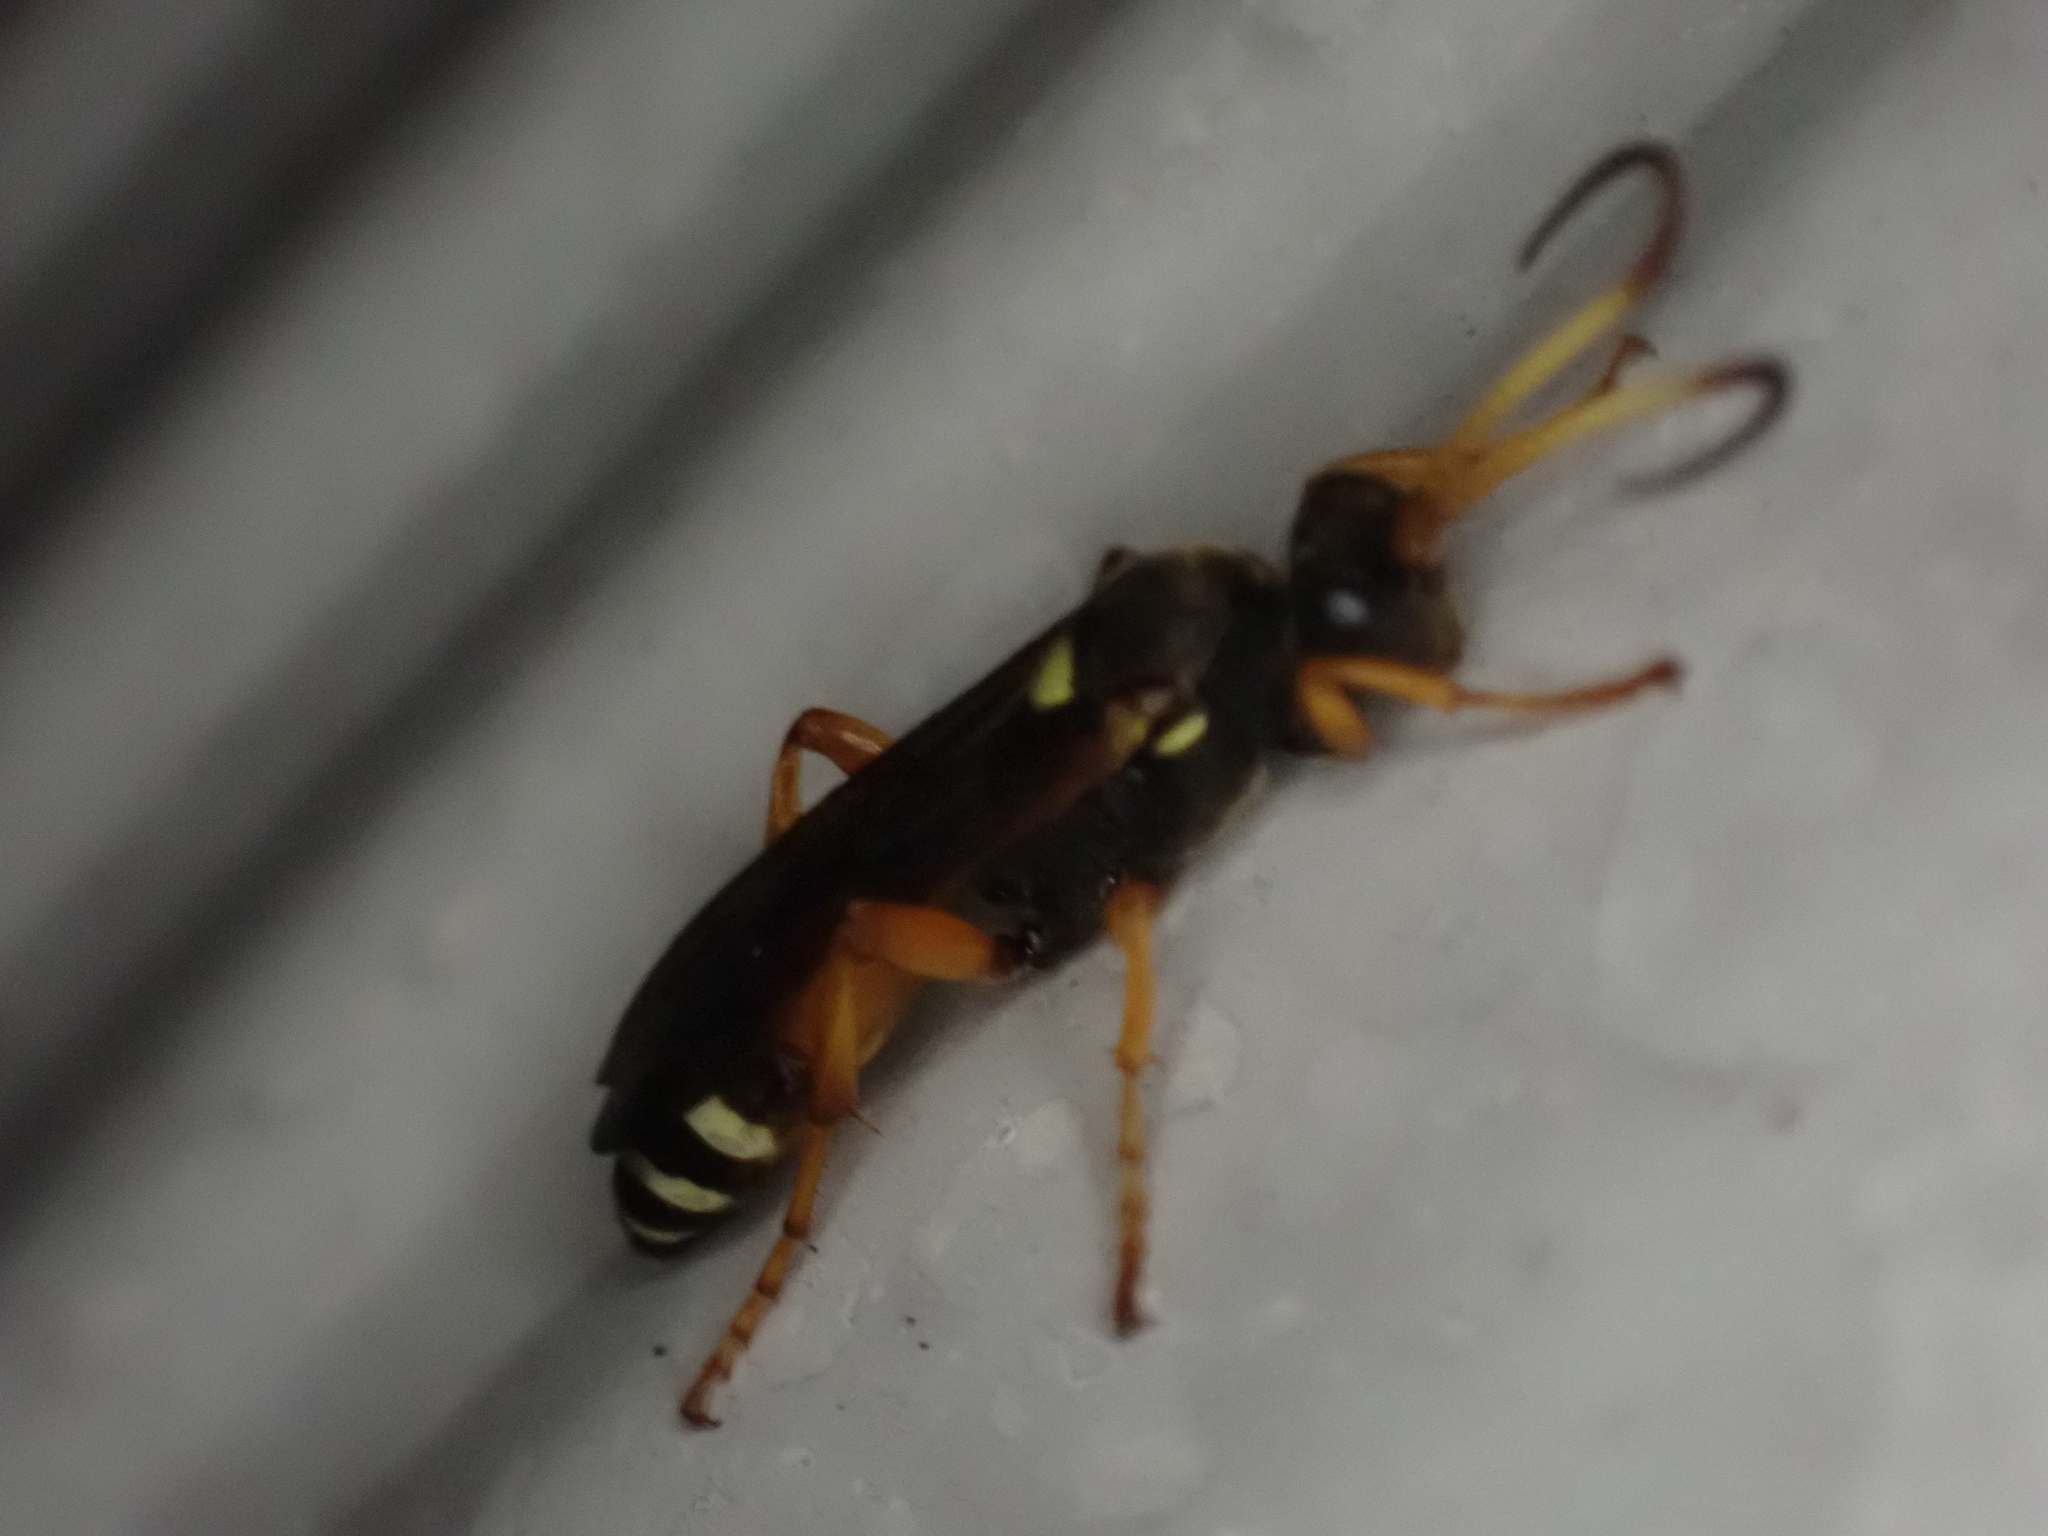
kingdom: Animalia
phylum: Arthropoda
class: Insecta
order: Hymenoptera
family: Ichneumonidae
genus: Ichneumon
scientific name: Ichneumon ambulatorius
